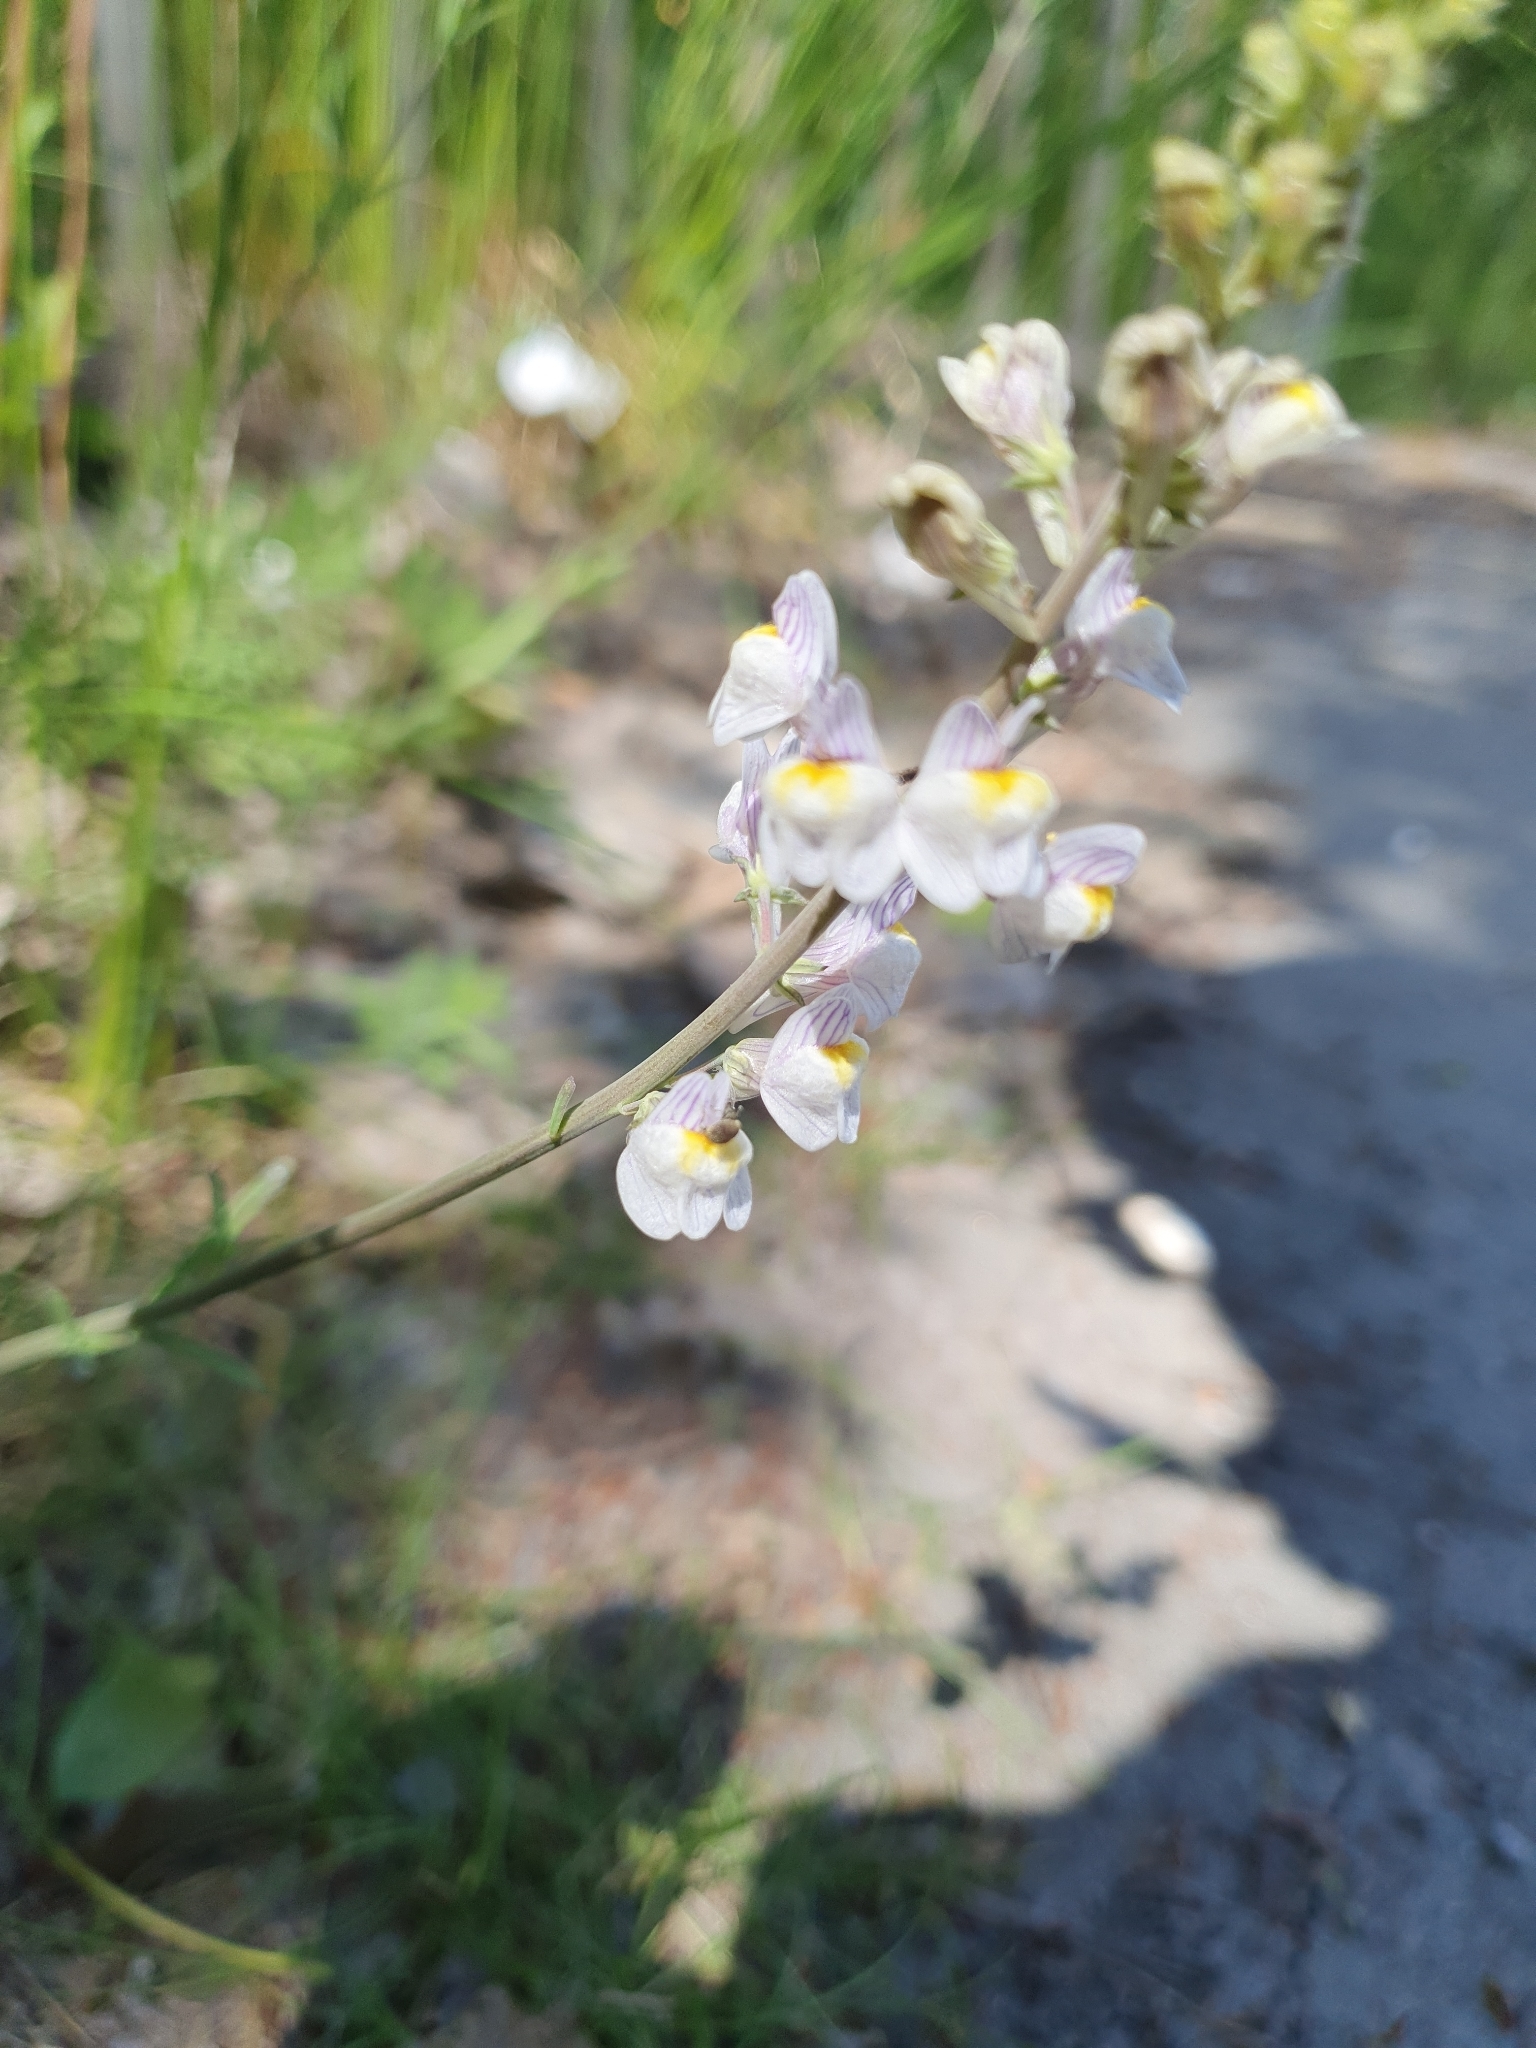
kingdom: Plantae
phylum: Tracheophyta
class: Magnoliopsida
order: Lamiales
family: Plantaginaceae
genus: Linaria
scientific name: Linaria repens
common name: Pale toadflax
